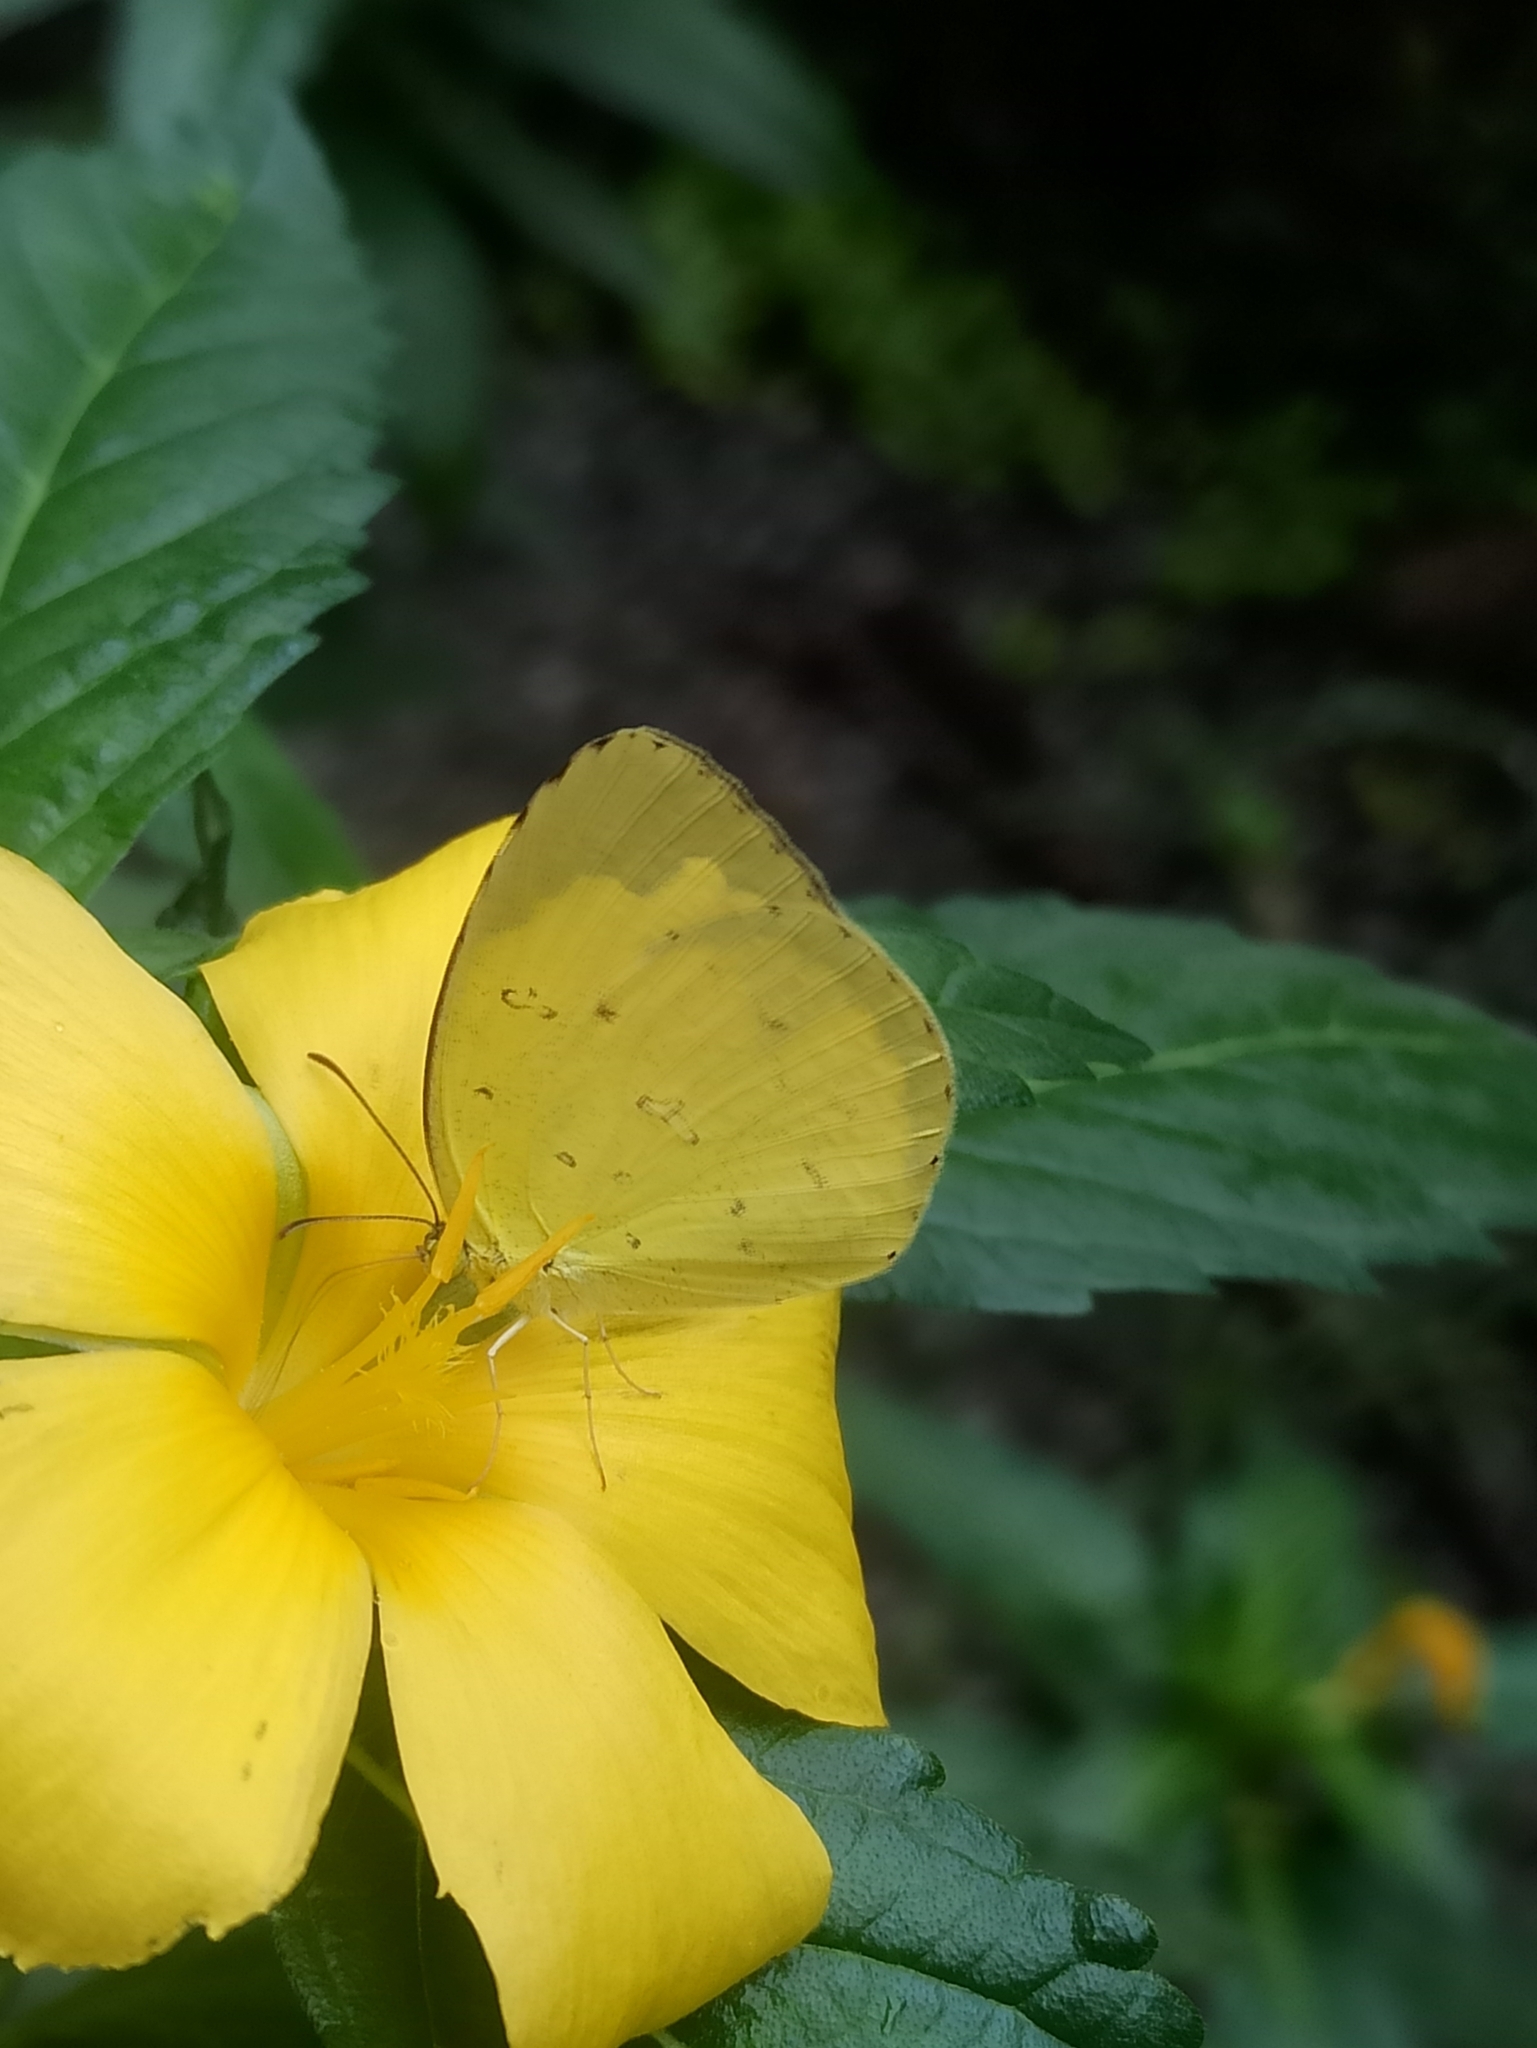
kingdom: Animalia
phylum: Arthropoda
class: Insecta
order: Lepidoptera
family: Pieridae
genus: Eurema
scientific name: Eurema hecabe
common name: Pale grass yellow
